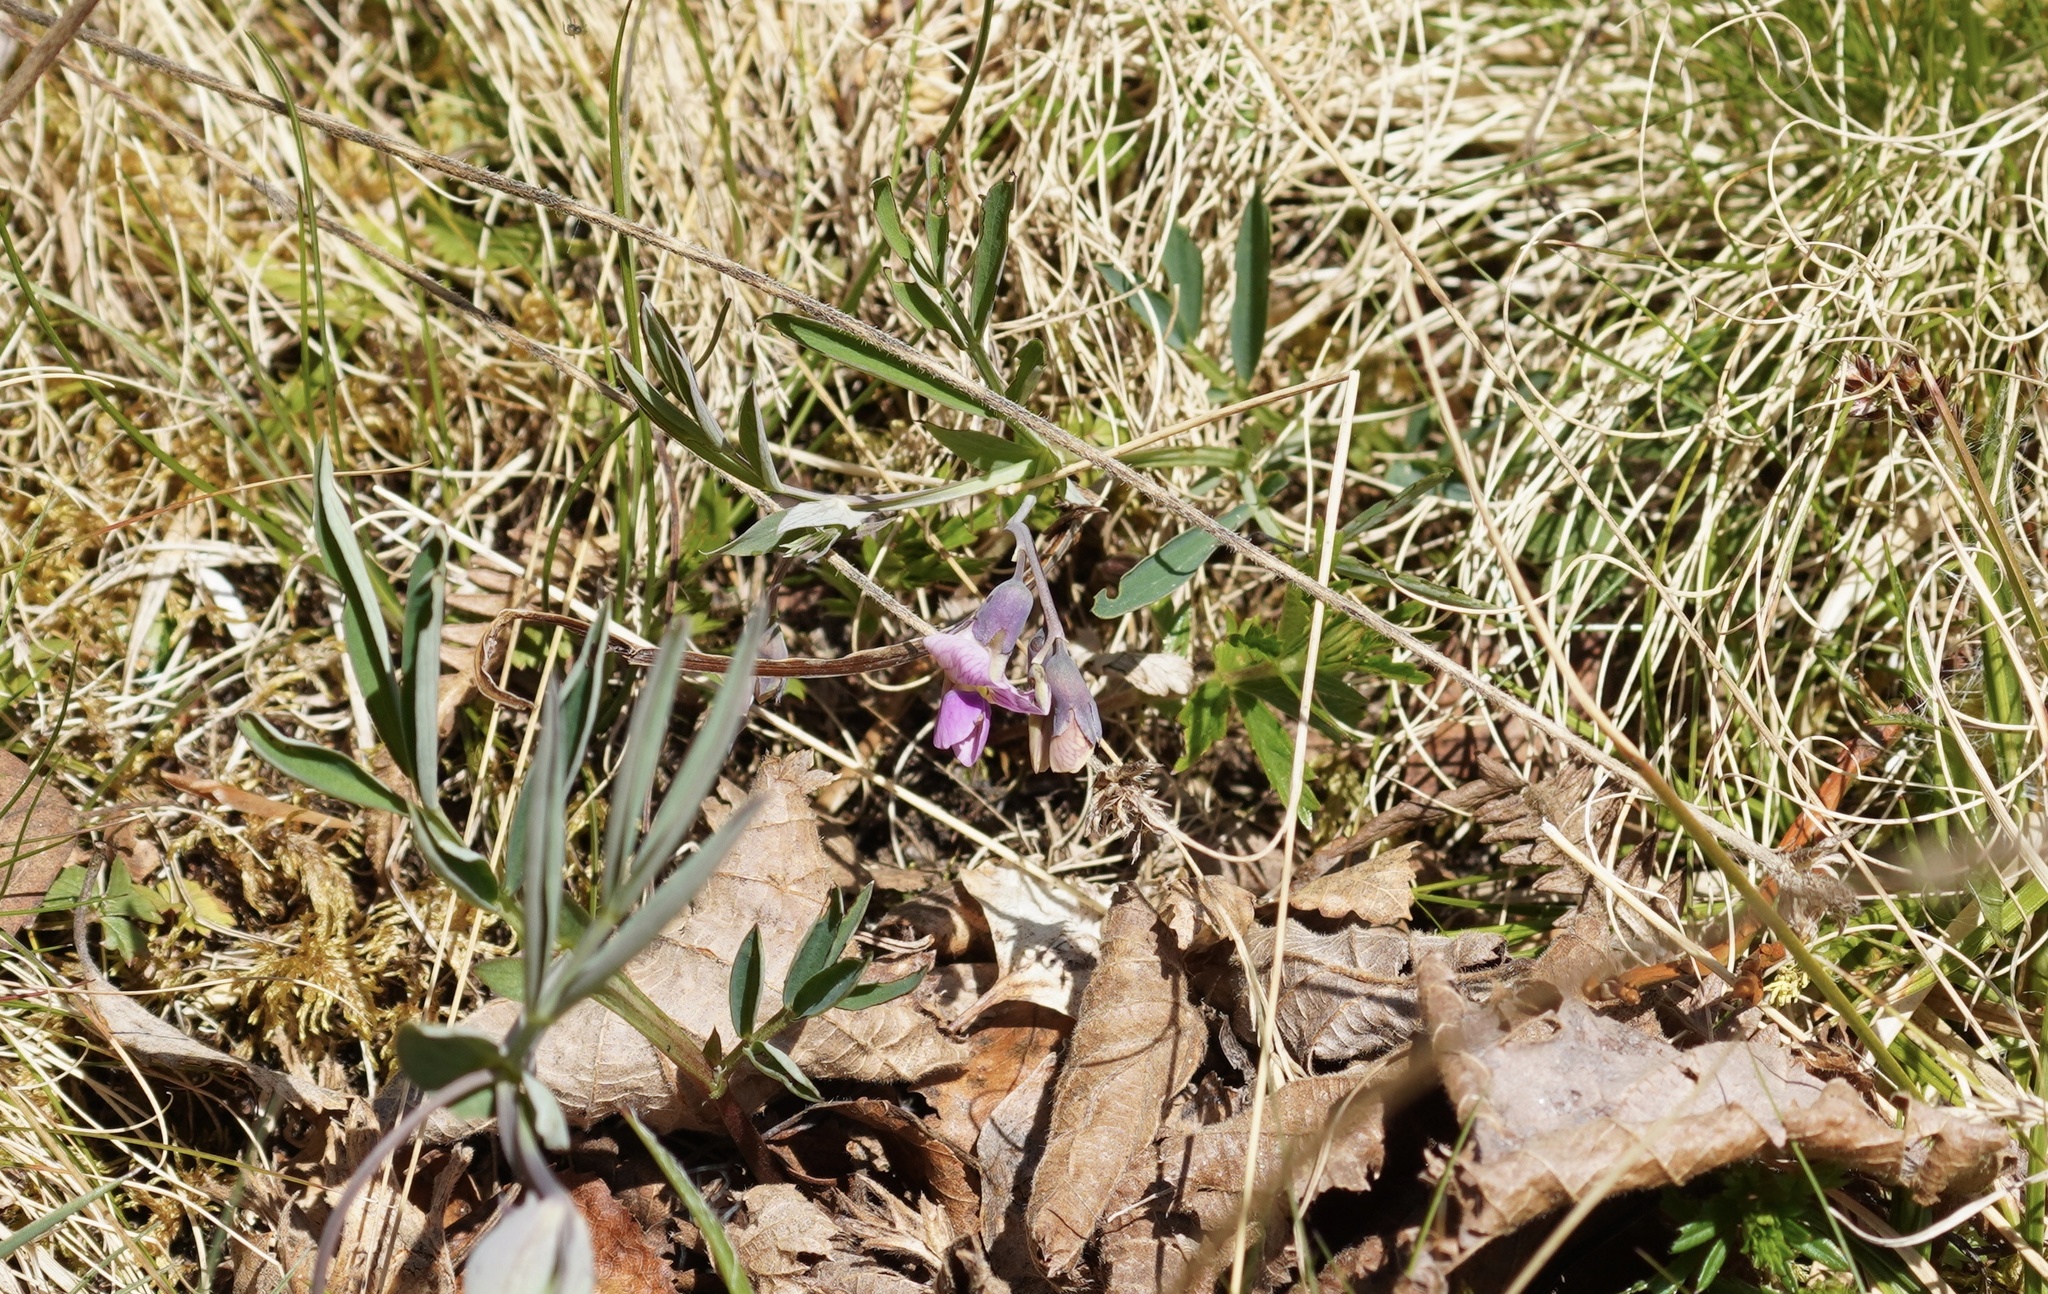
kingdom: Plantae
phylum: Tracheophyta
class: Magnoliopsida
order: Fabales
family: Fabaceae
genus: Lathyrus
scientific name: Lathyrus linifolius
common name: Bitter-vetch
